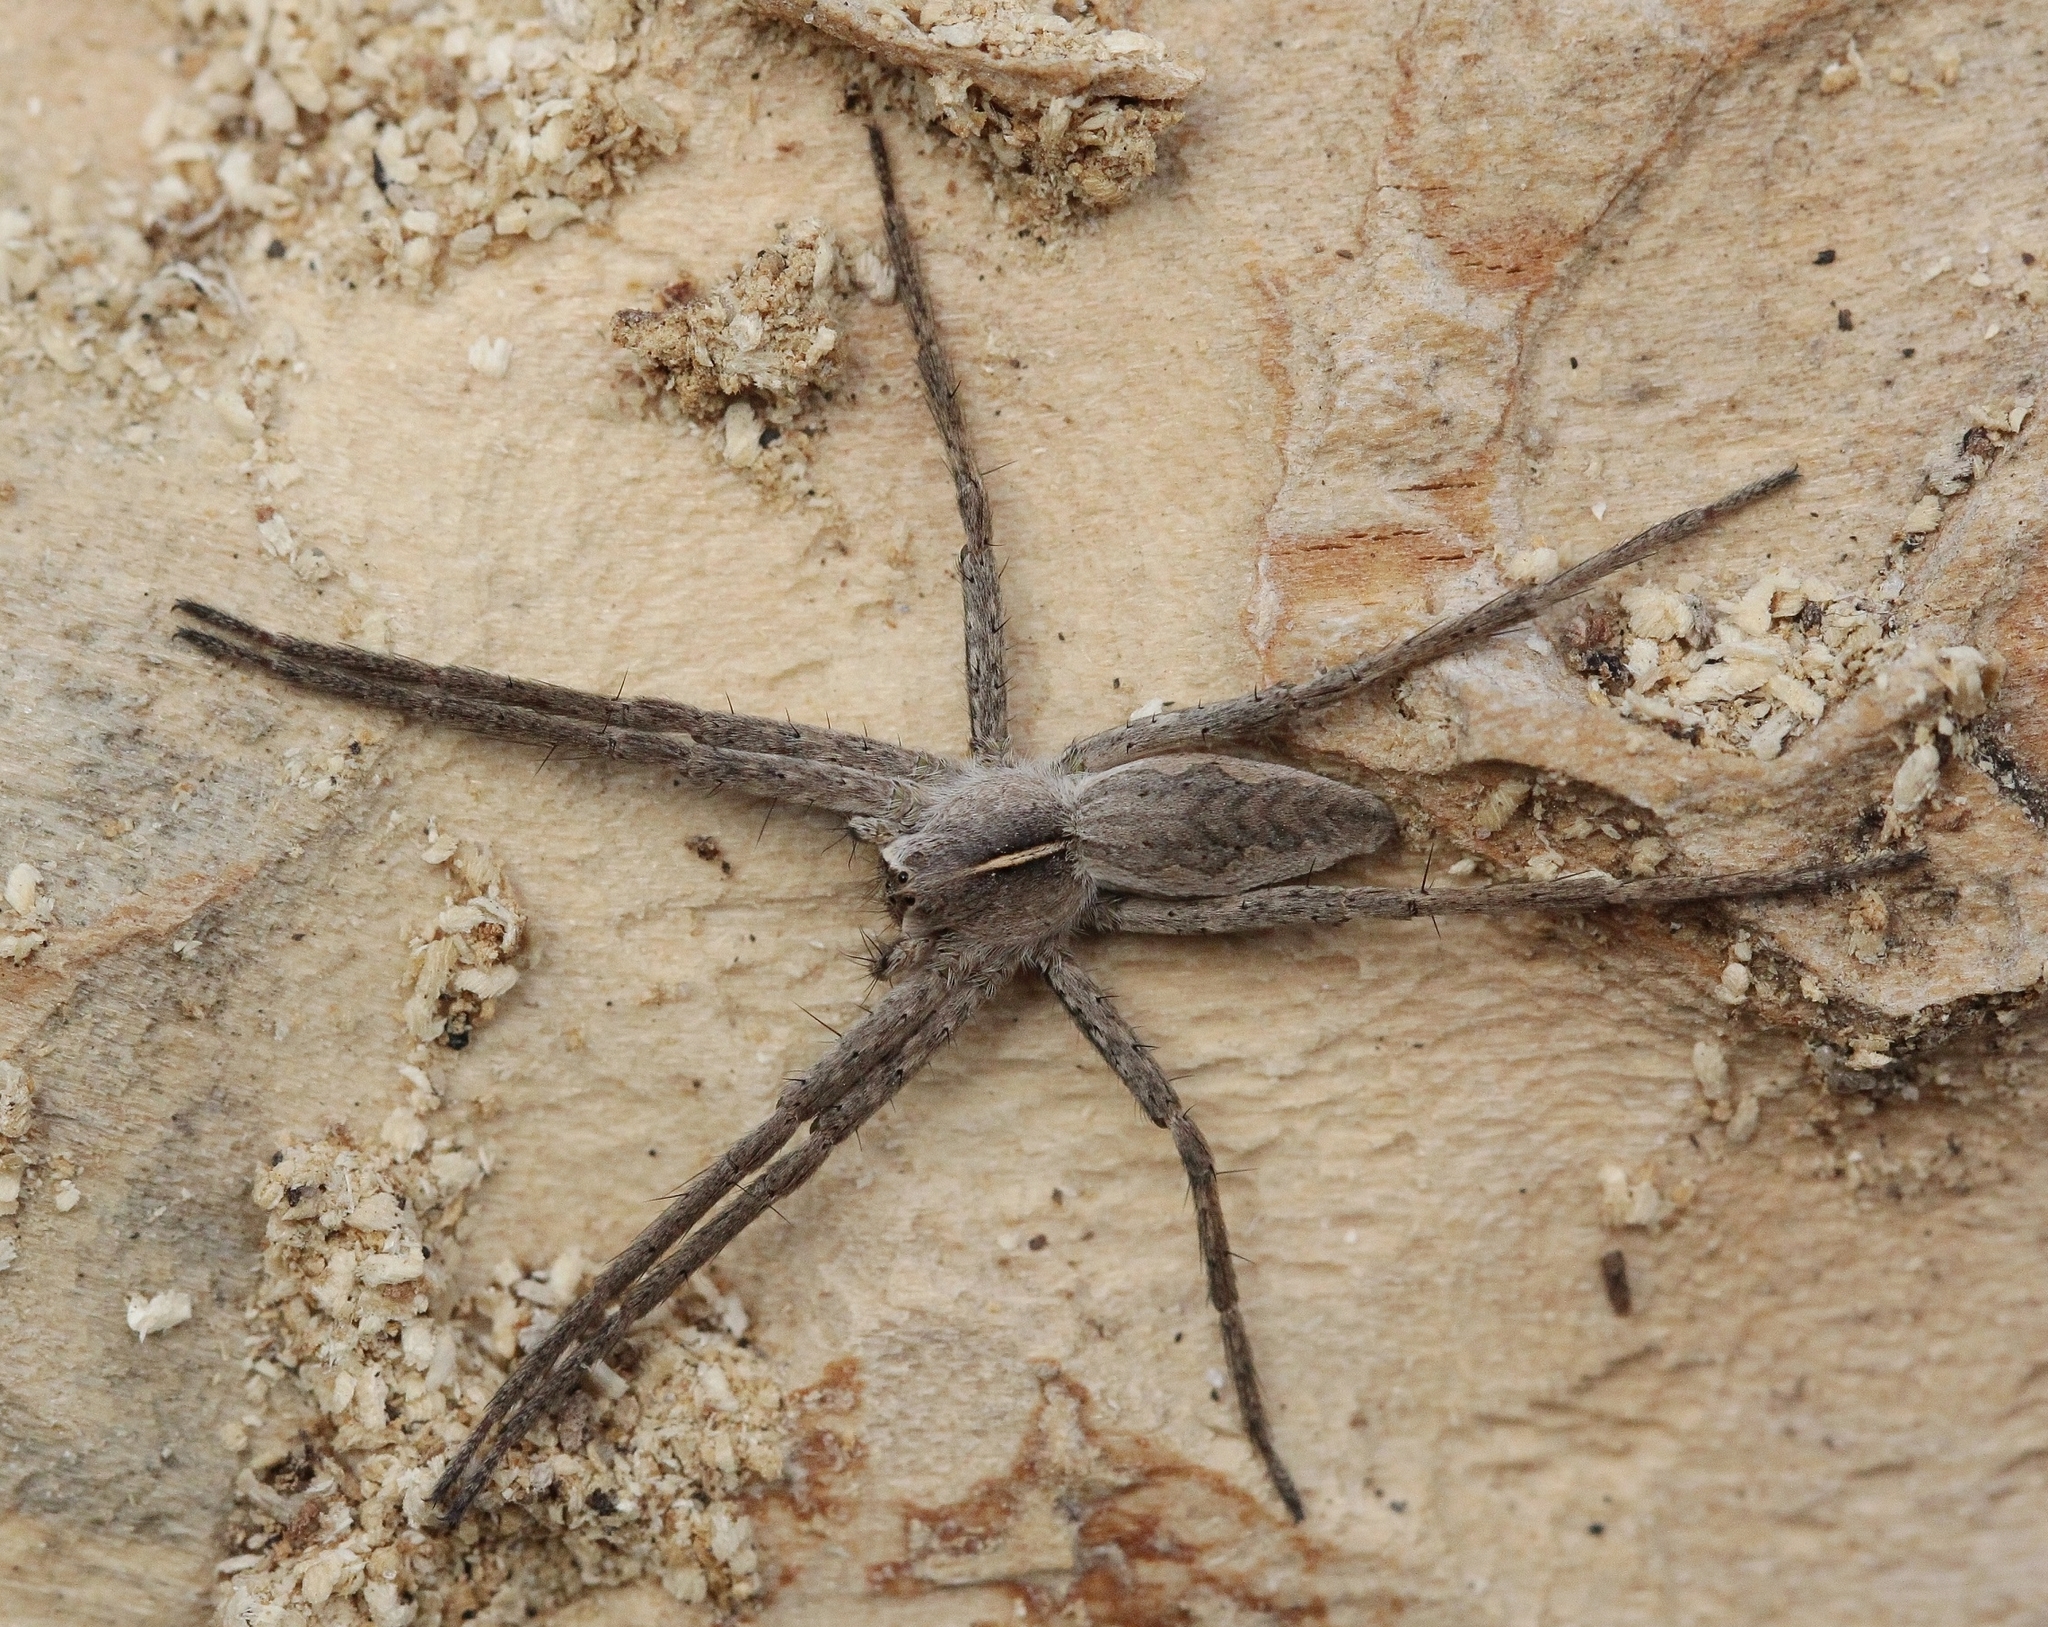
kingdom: Animalia
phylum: Arthropoda
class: Arachnida
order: Araneae
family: Pisauridae
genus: Pisaura
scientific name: Pisaura
